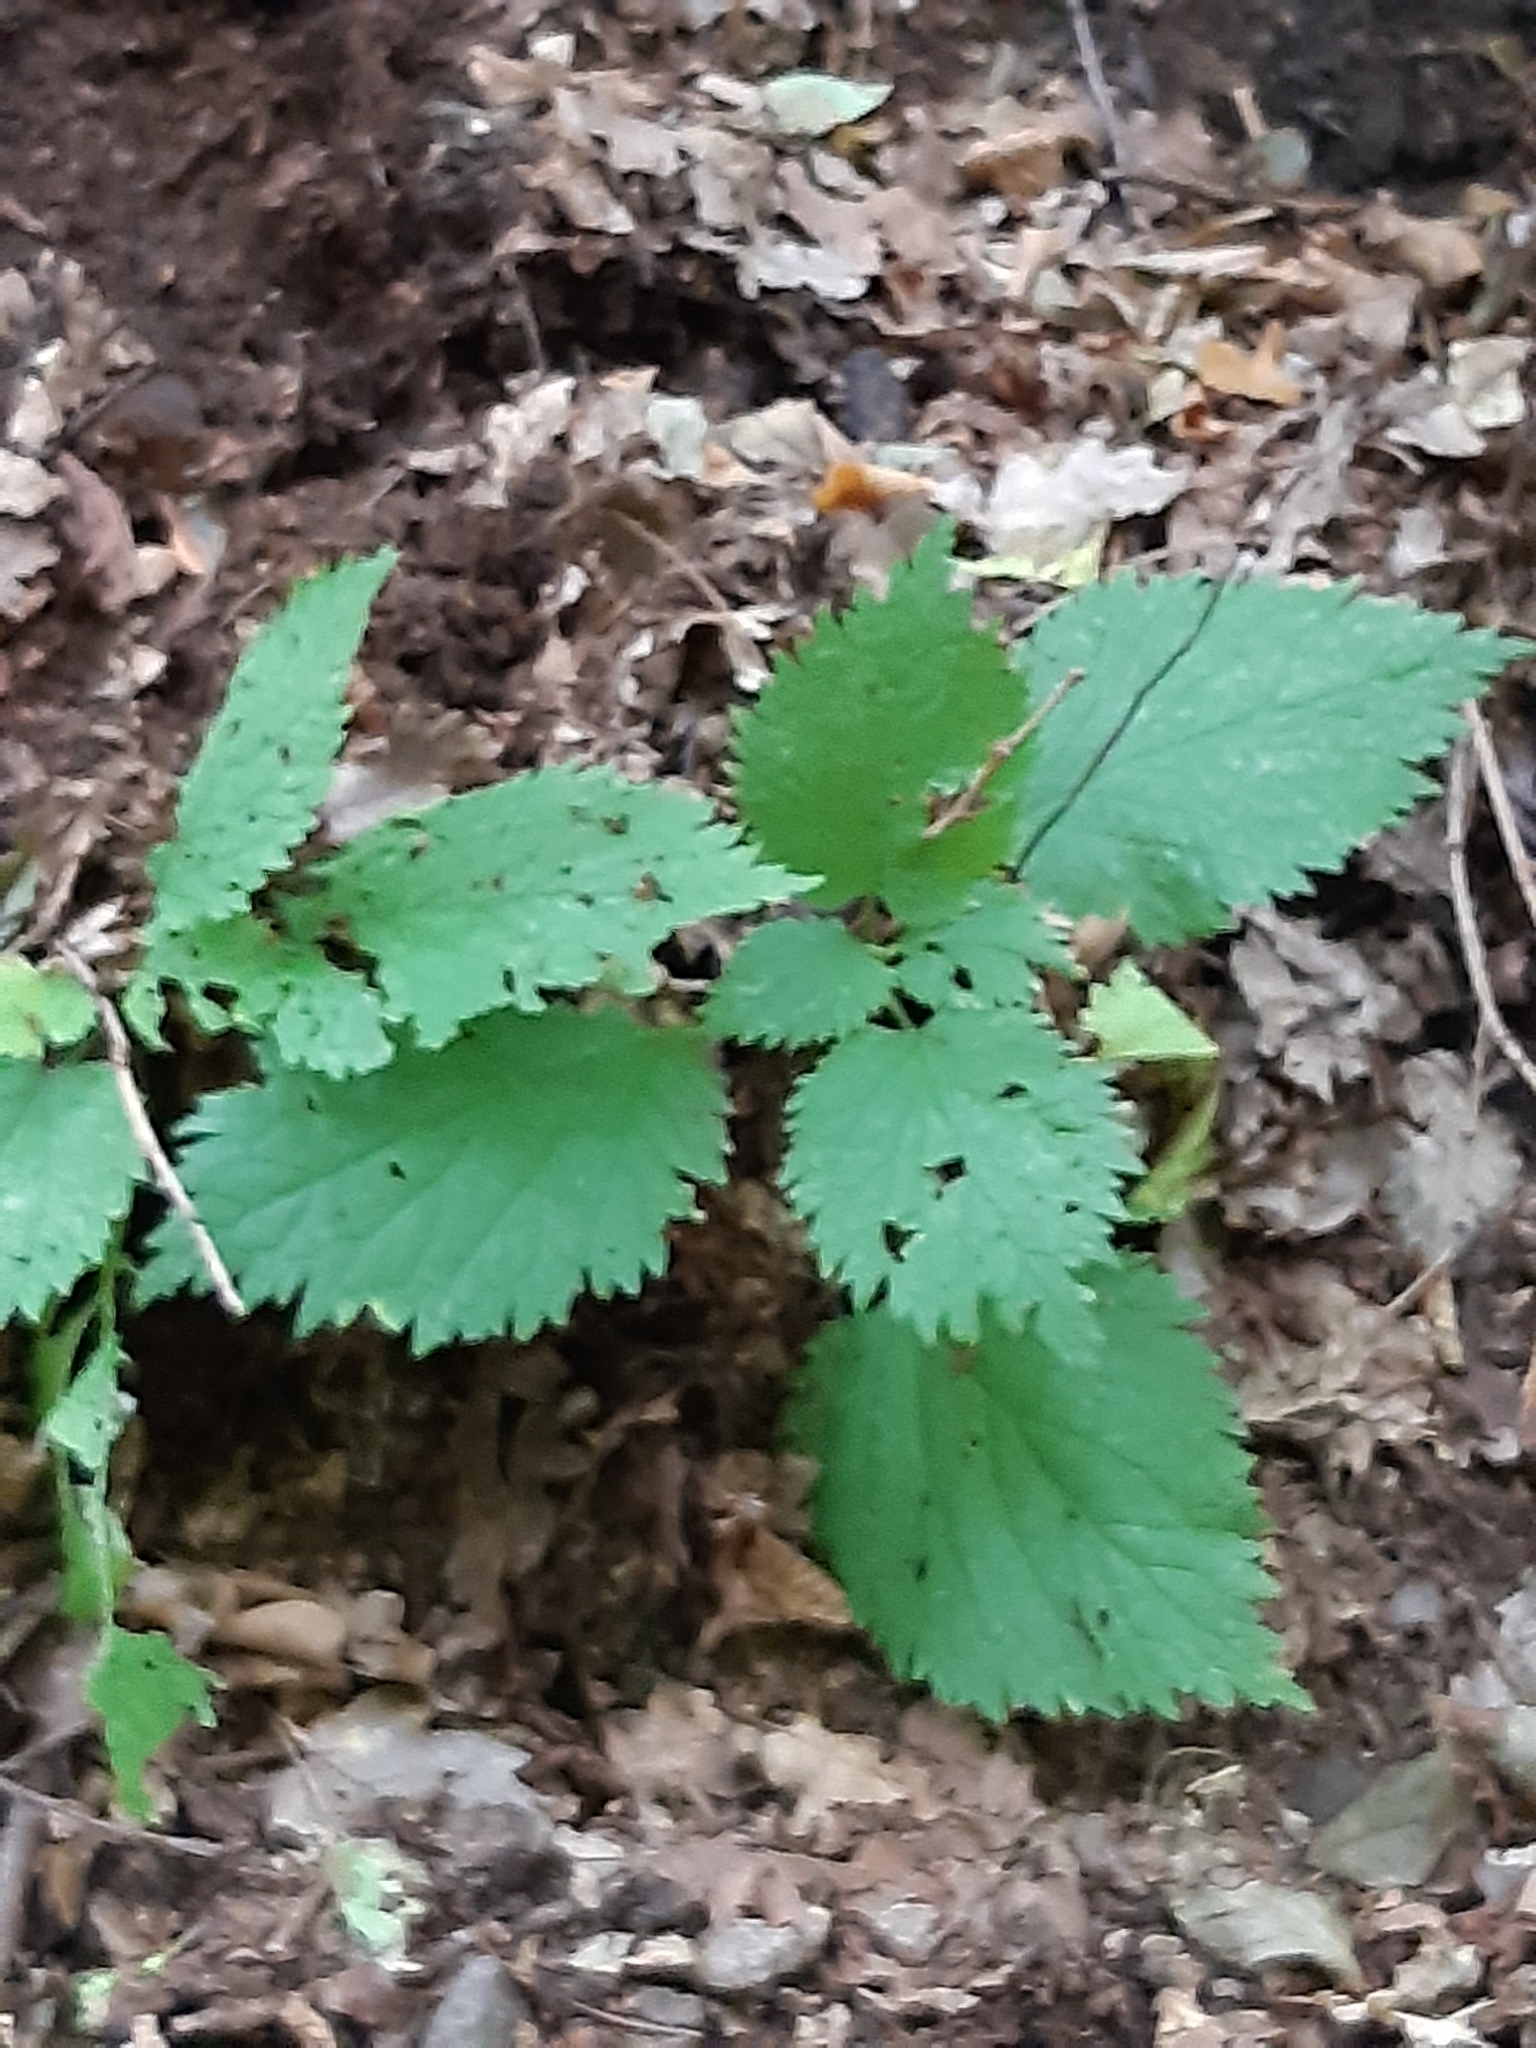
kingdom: Plantae
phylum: Tracheophyta
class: Magnoliopsida
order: Rosales
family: Urticaceae
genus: Urtica
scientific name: Urtica dioica
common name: Common nettle
